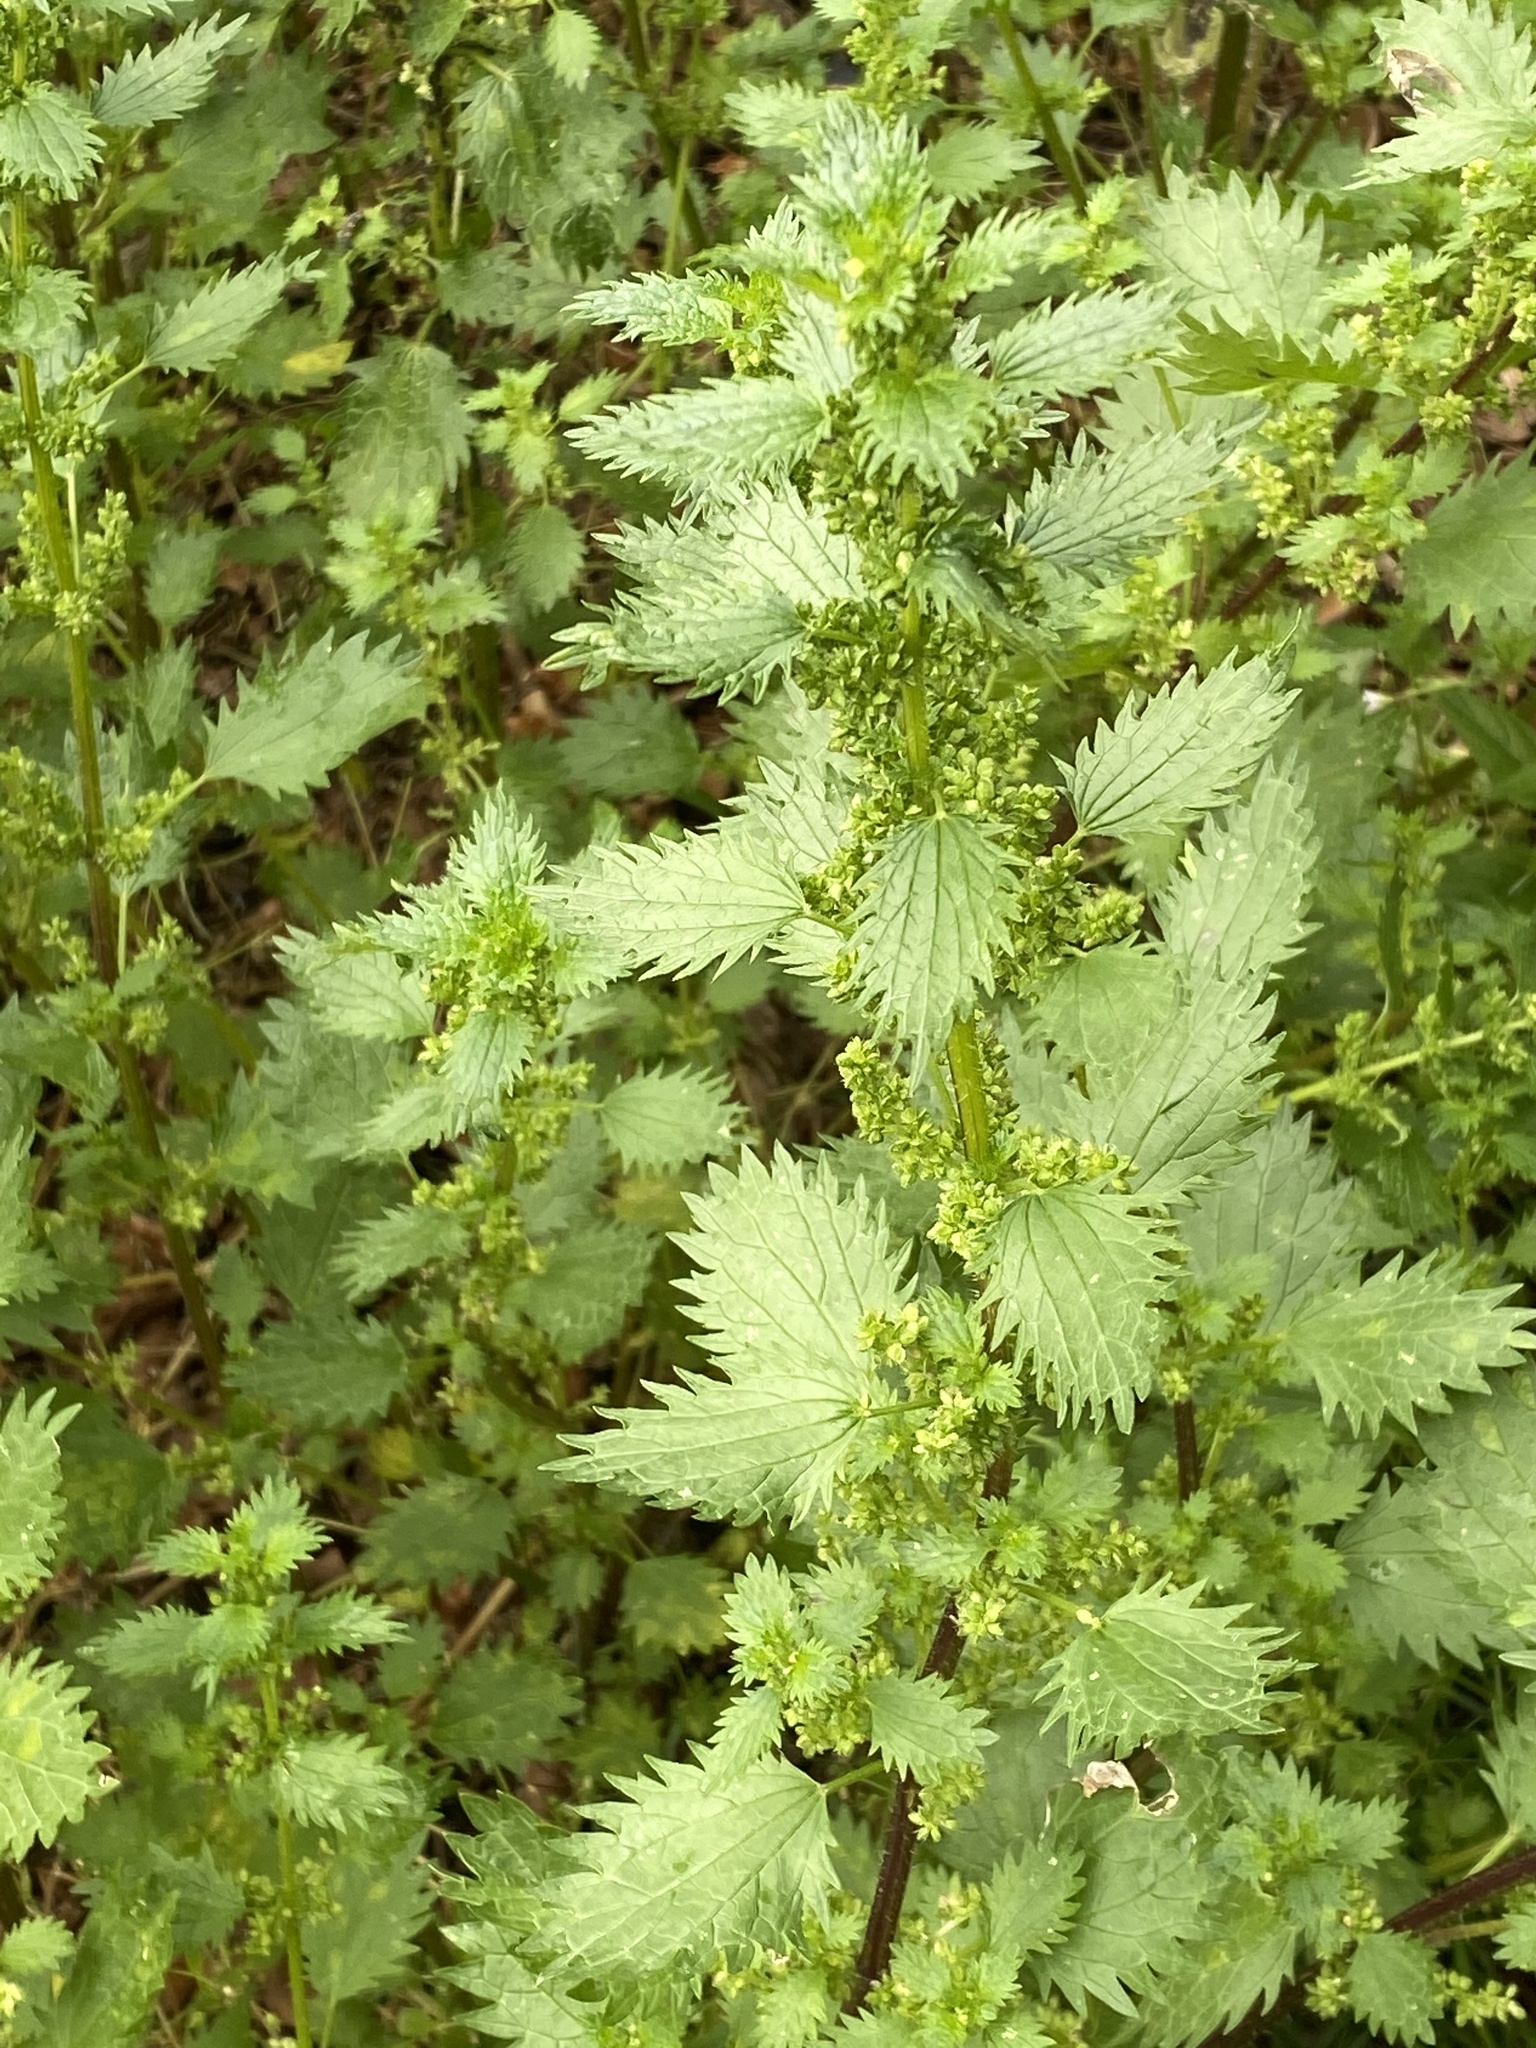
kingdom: Plantae
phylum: Tracheophyta
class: Magnoliopsida
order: Rosales
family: Urticaceae
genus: Urtica
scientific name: Urtica urens
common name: Dwarf nettle
